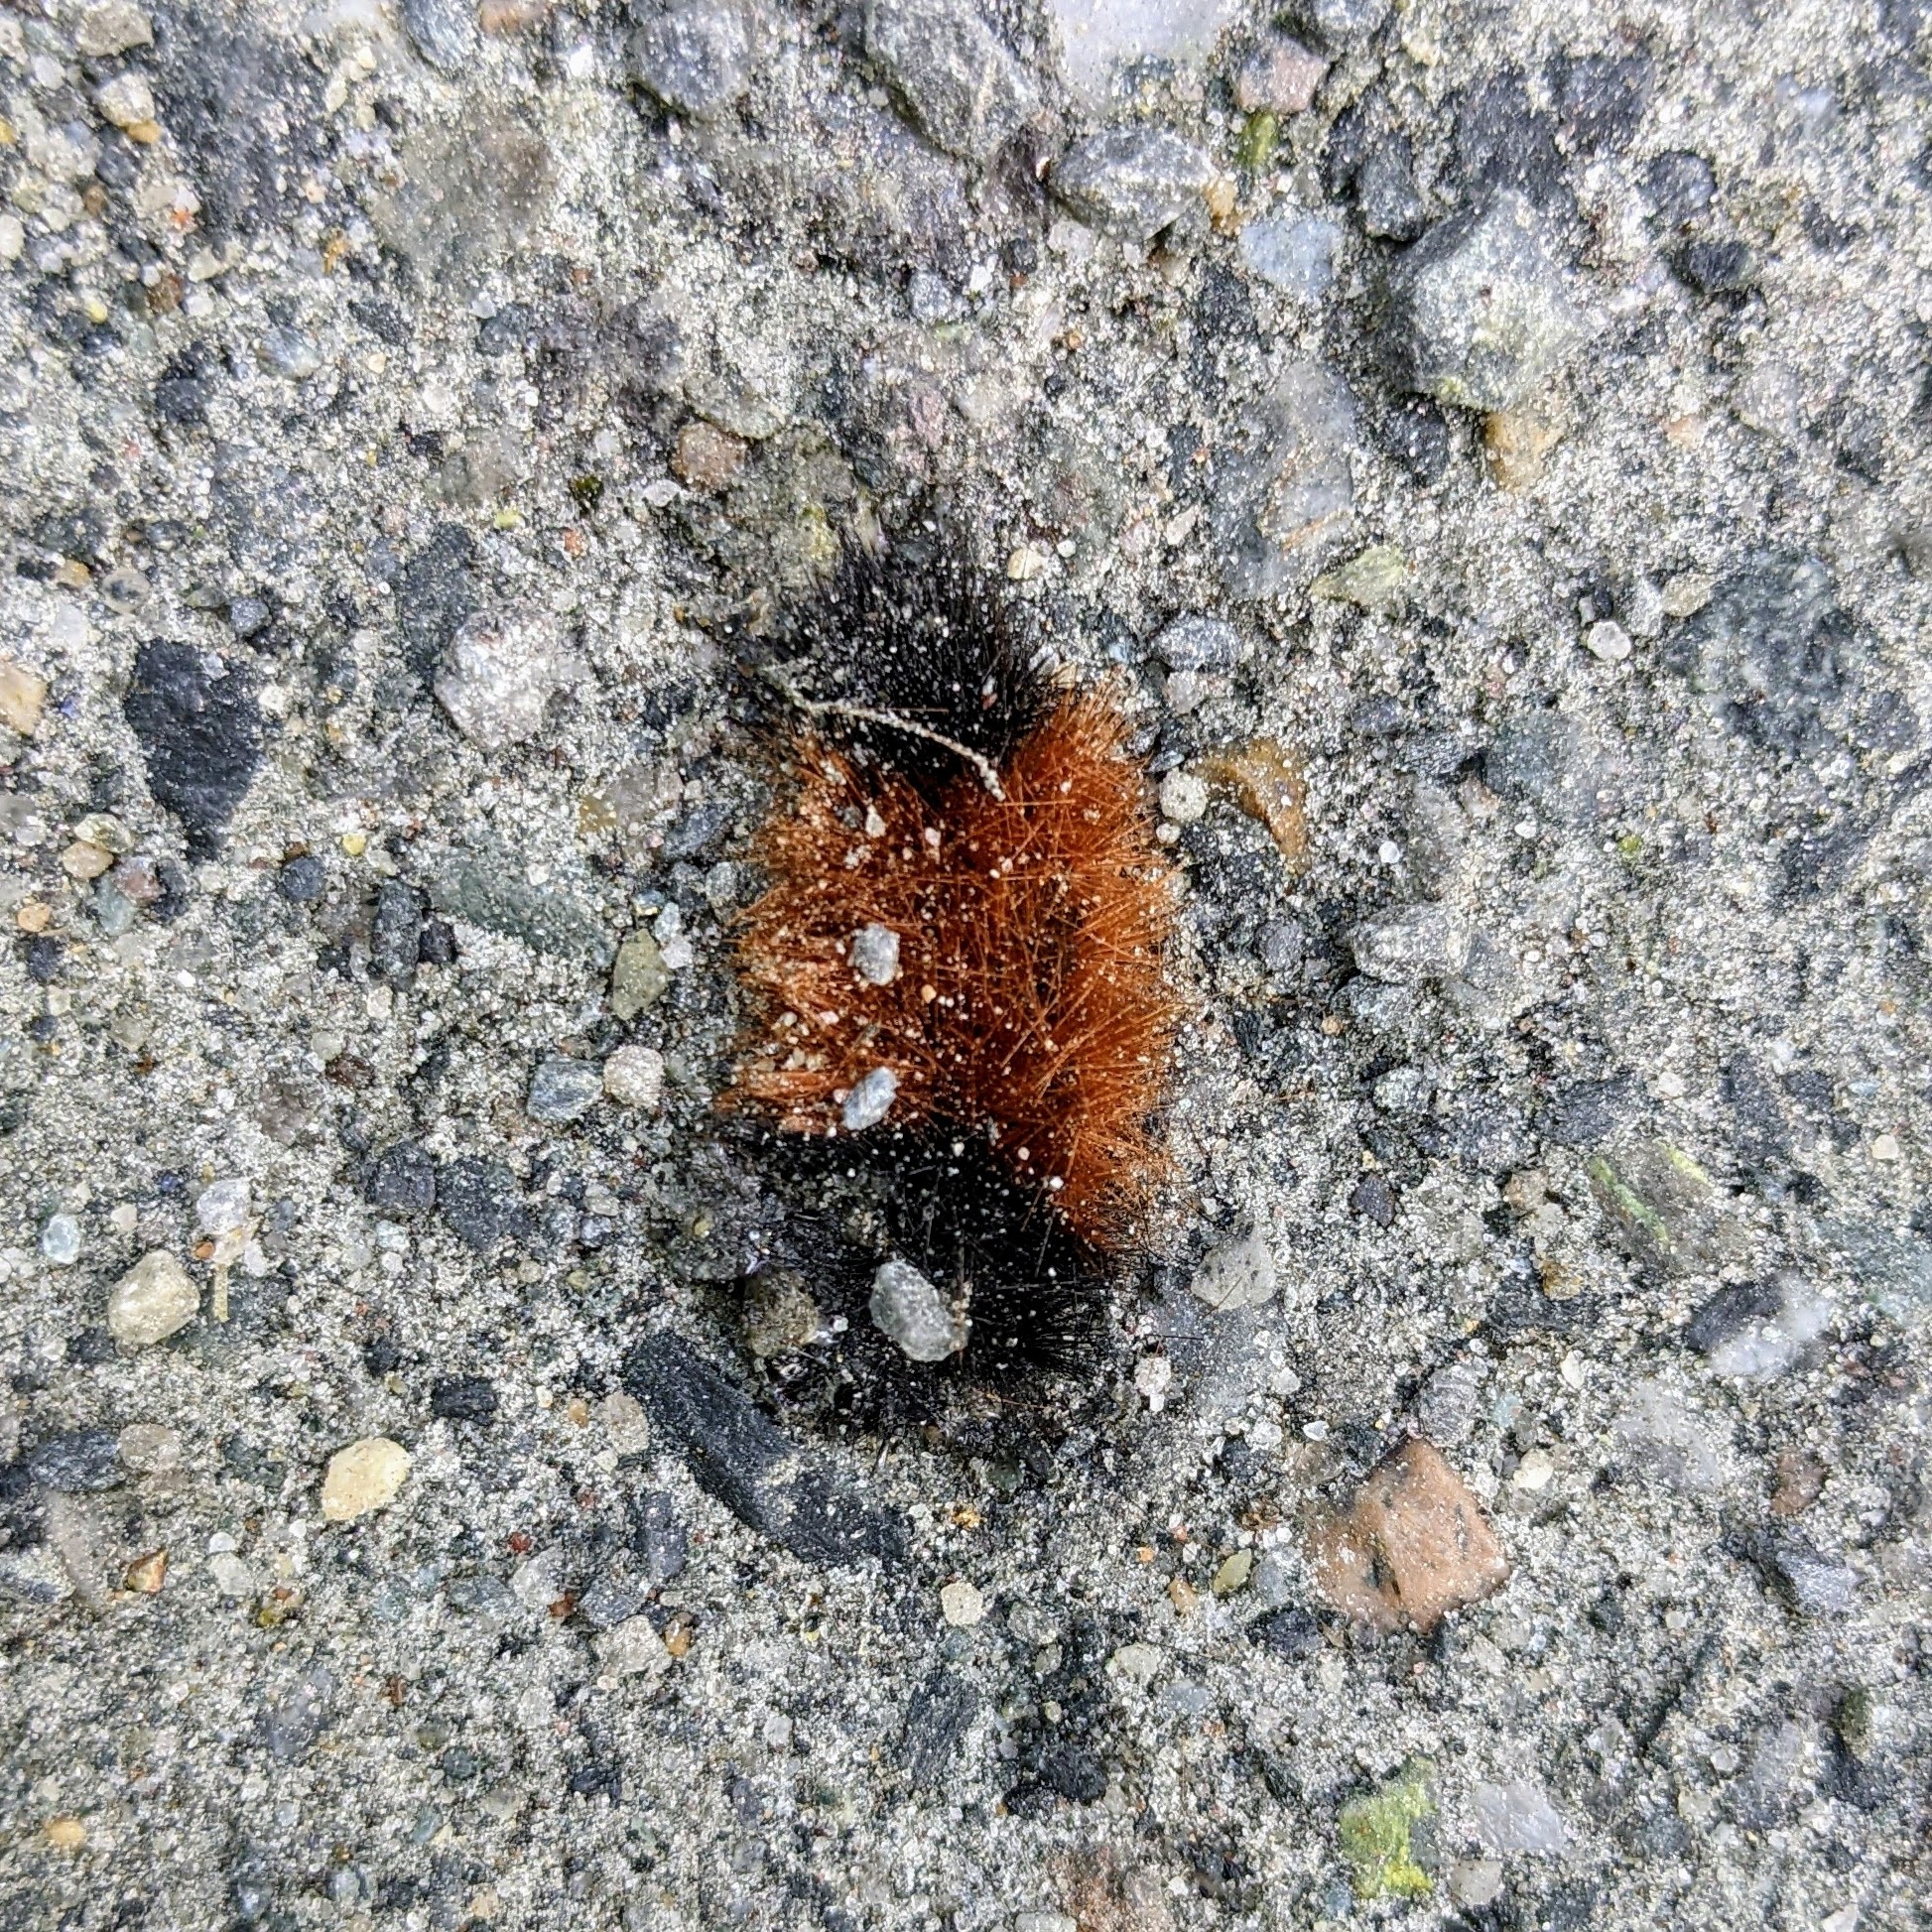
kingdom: Animalia
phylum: Arthropoda
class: Insecta
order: Lepidoptera
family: Erebidae
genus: Pyrrharctia
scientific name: Pyrrharctia isabella
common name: Isabella tiger moth
